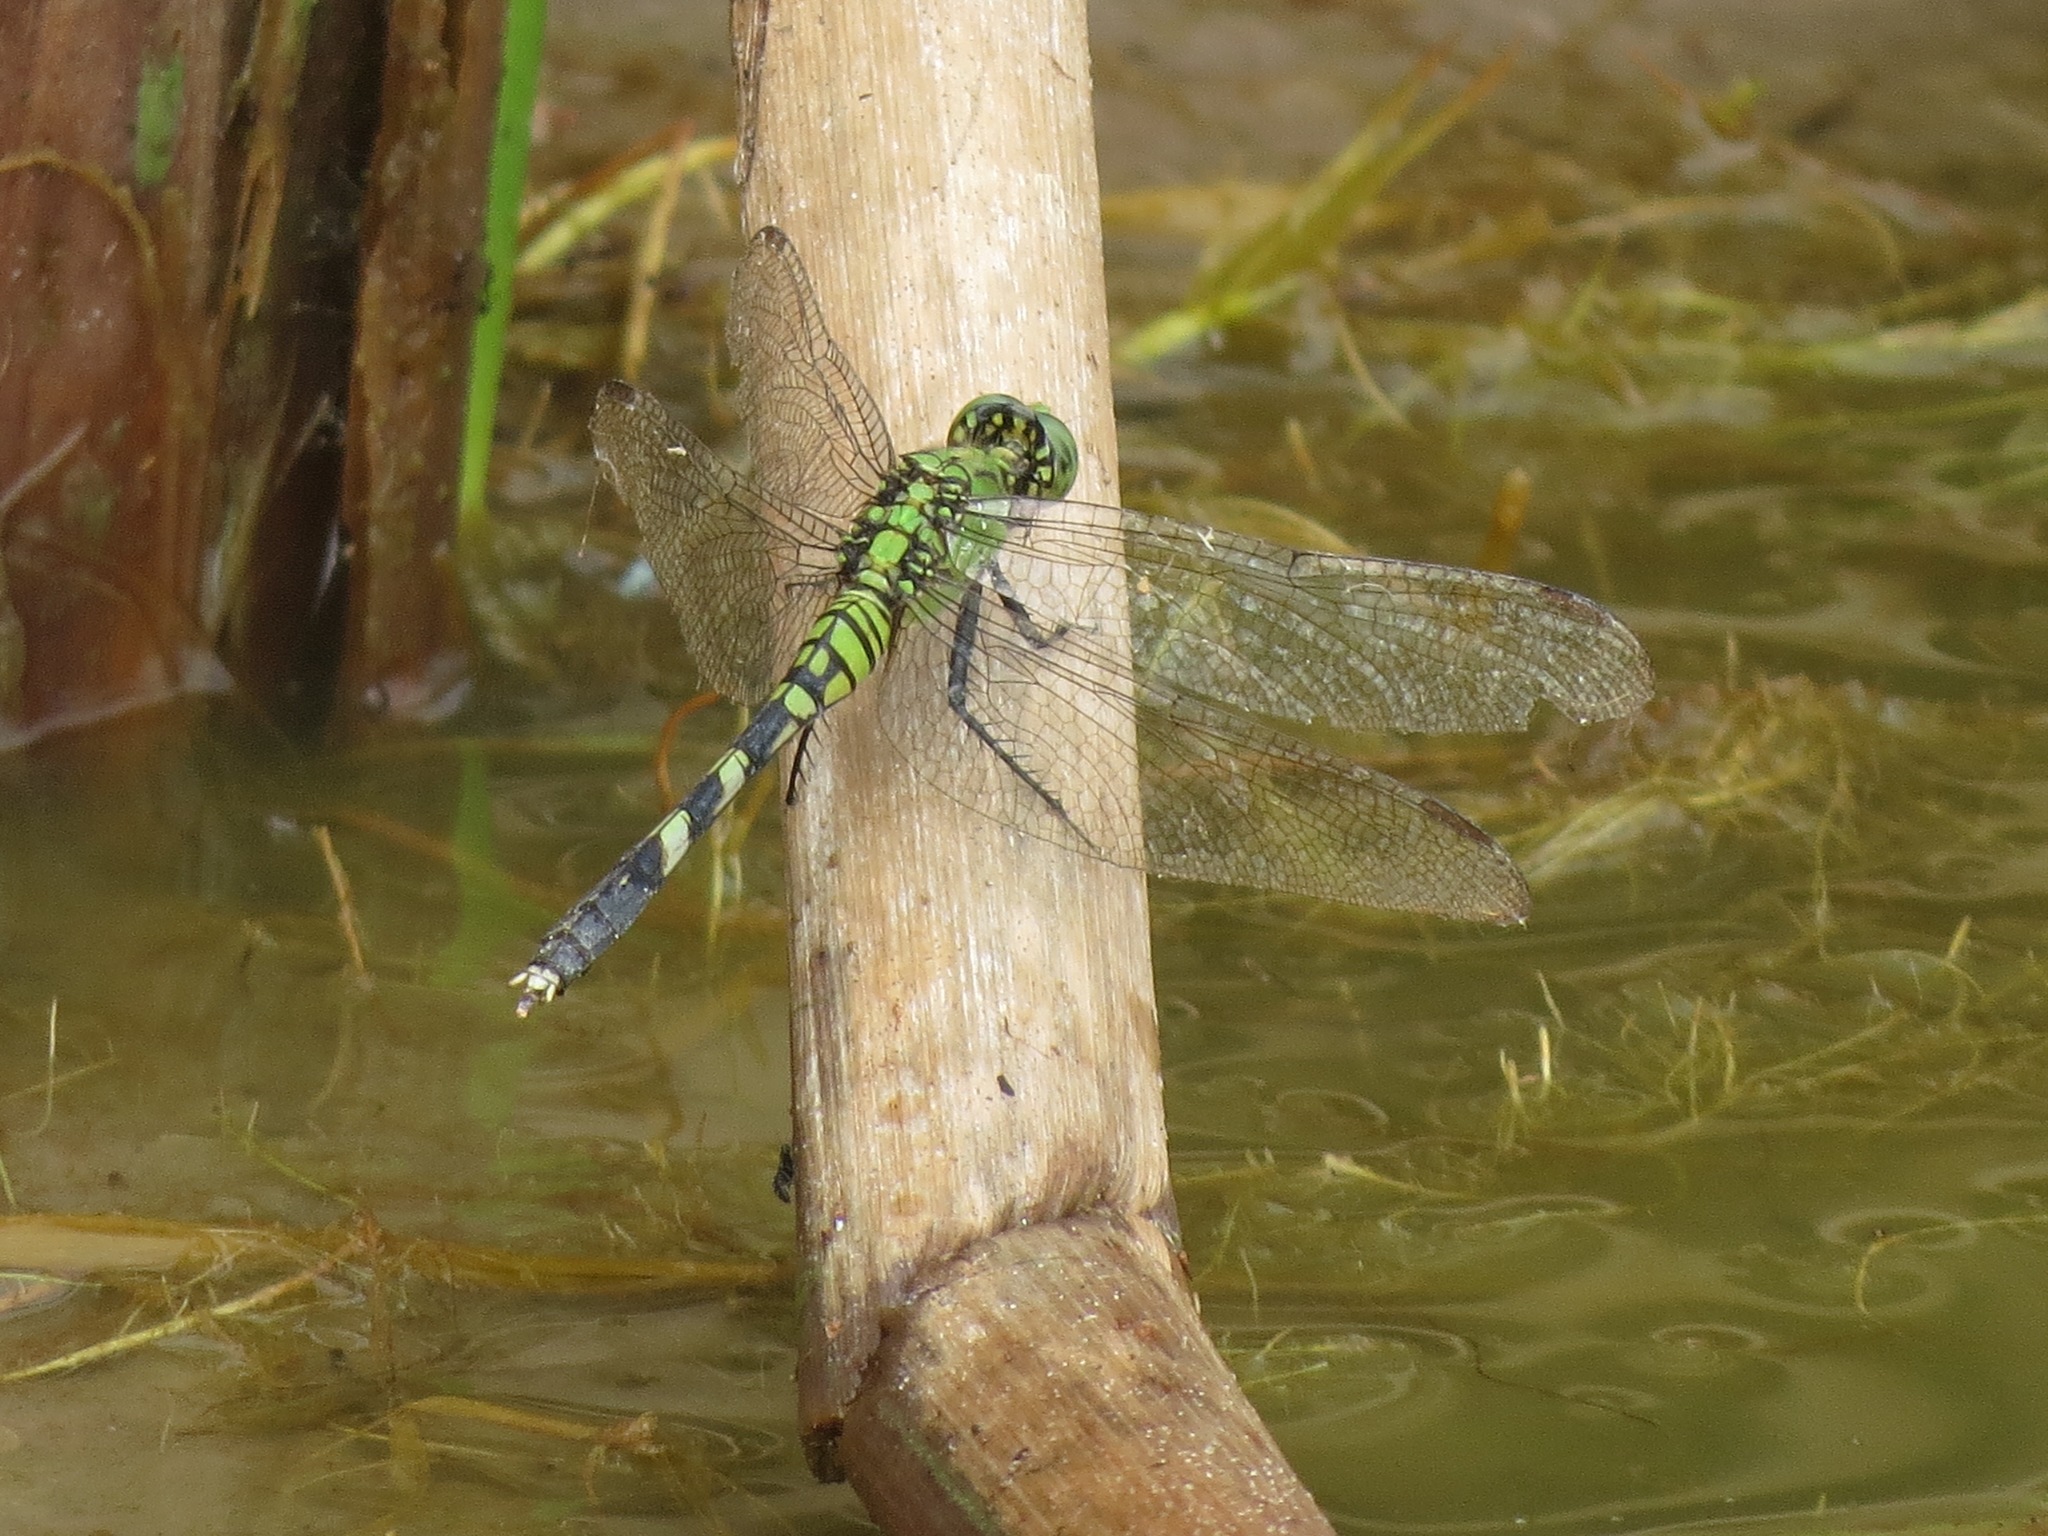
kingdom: Animalia
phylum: Arthropoda
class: Insecta
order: Odonata
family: Libellulidae
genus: Erythemis
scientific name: Erythemis simplicicollis
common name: Eastern pondhawk
